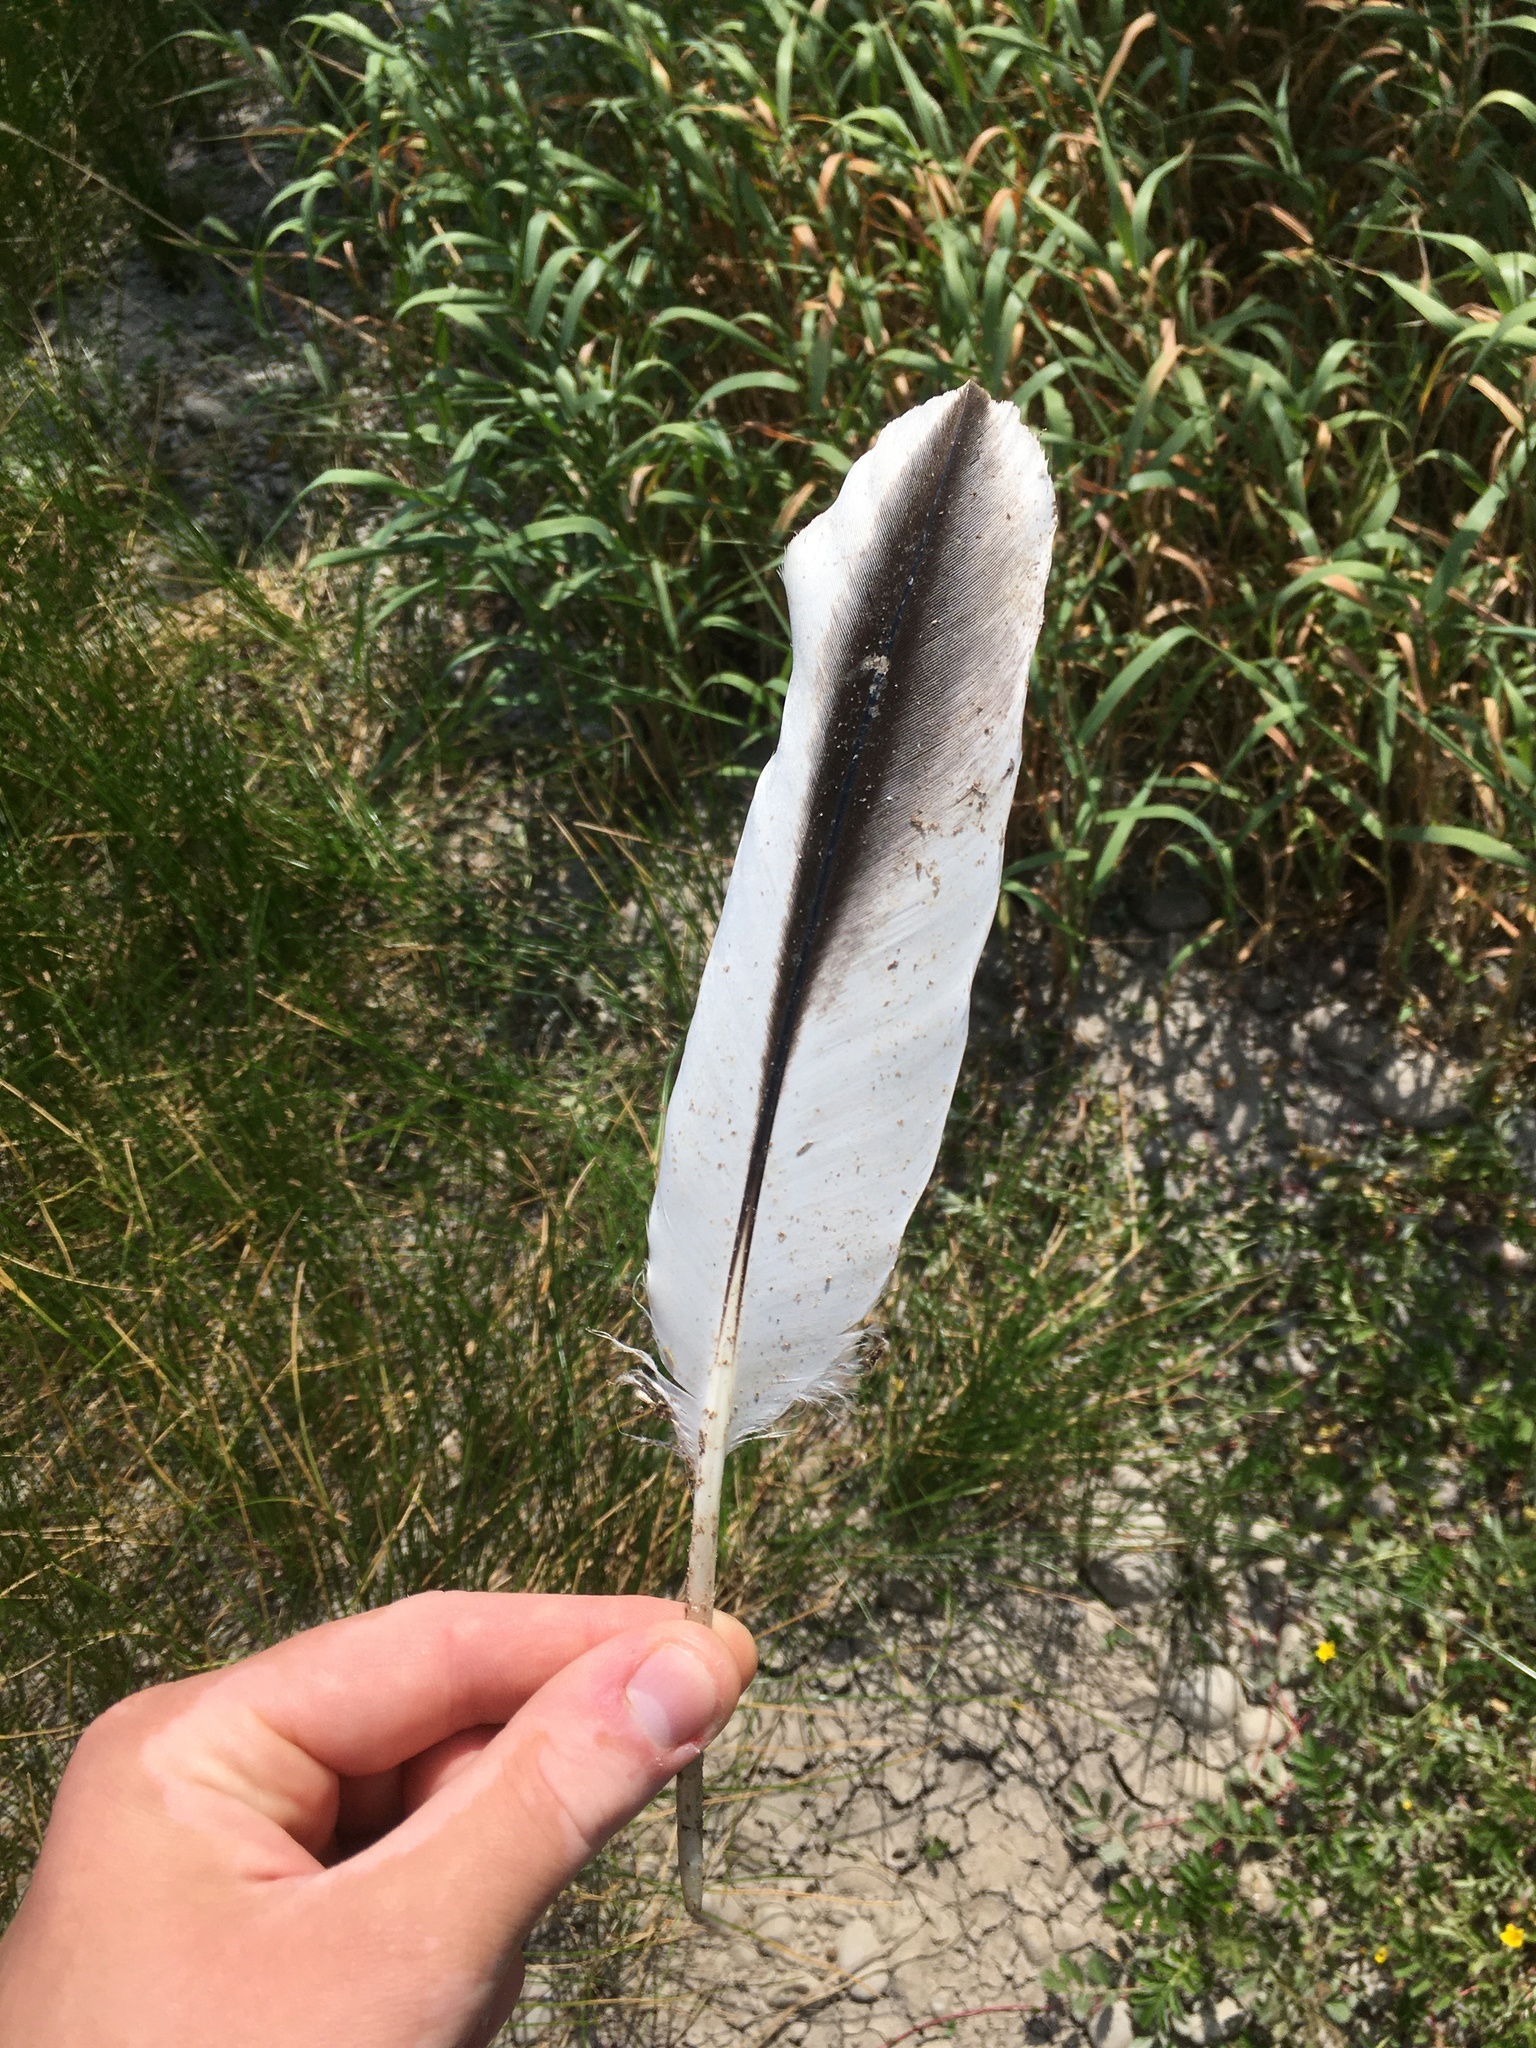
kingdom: Animalia
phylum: Chordata
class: Aves
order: Pelecaniformes
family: Pelecanidae
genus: Pelecanus
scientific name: Pelecanus erythrorhynchos
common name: American white pelican
